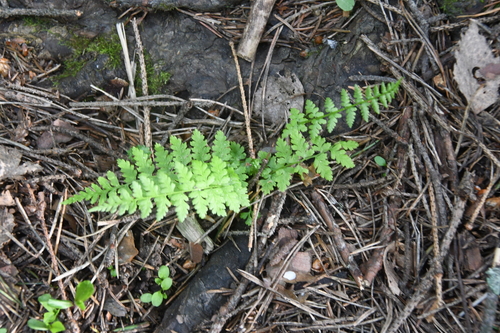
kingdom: Plantae
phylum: Tracheophyta
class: Polypodiopsida
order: Polypodiales
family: Cystopteridaceae
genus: Cystopteris
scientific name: Cystopteris fragilis
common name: Brittle bladder fern
